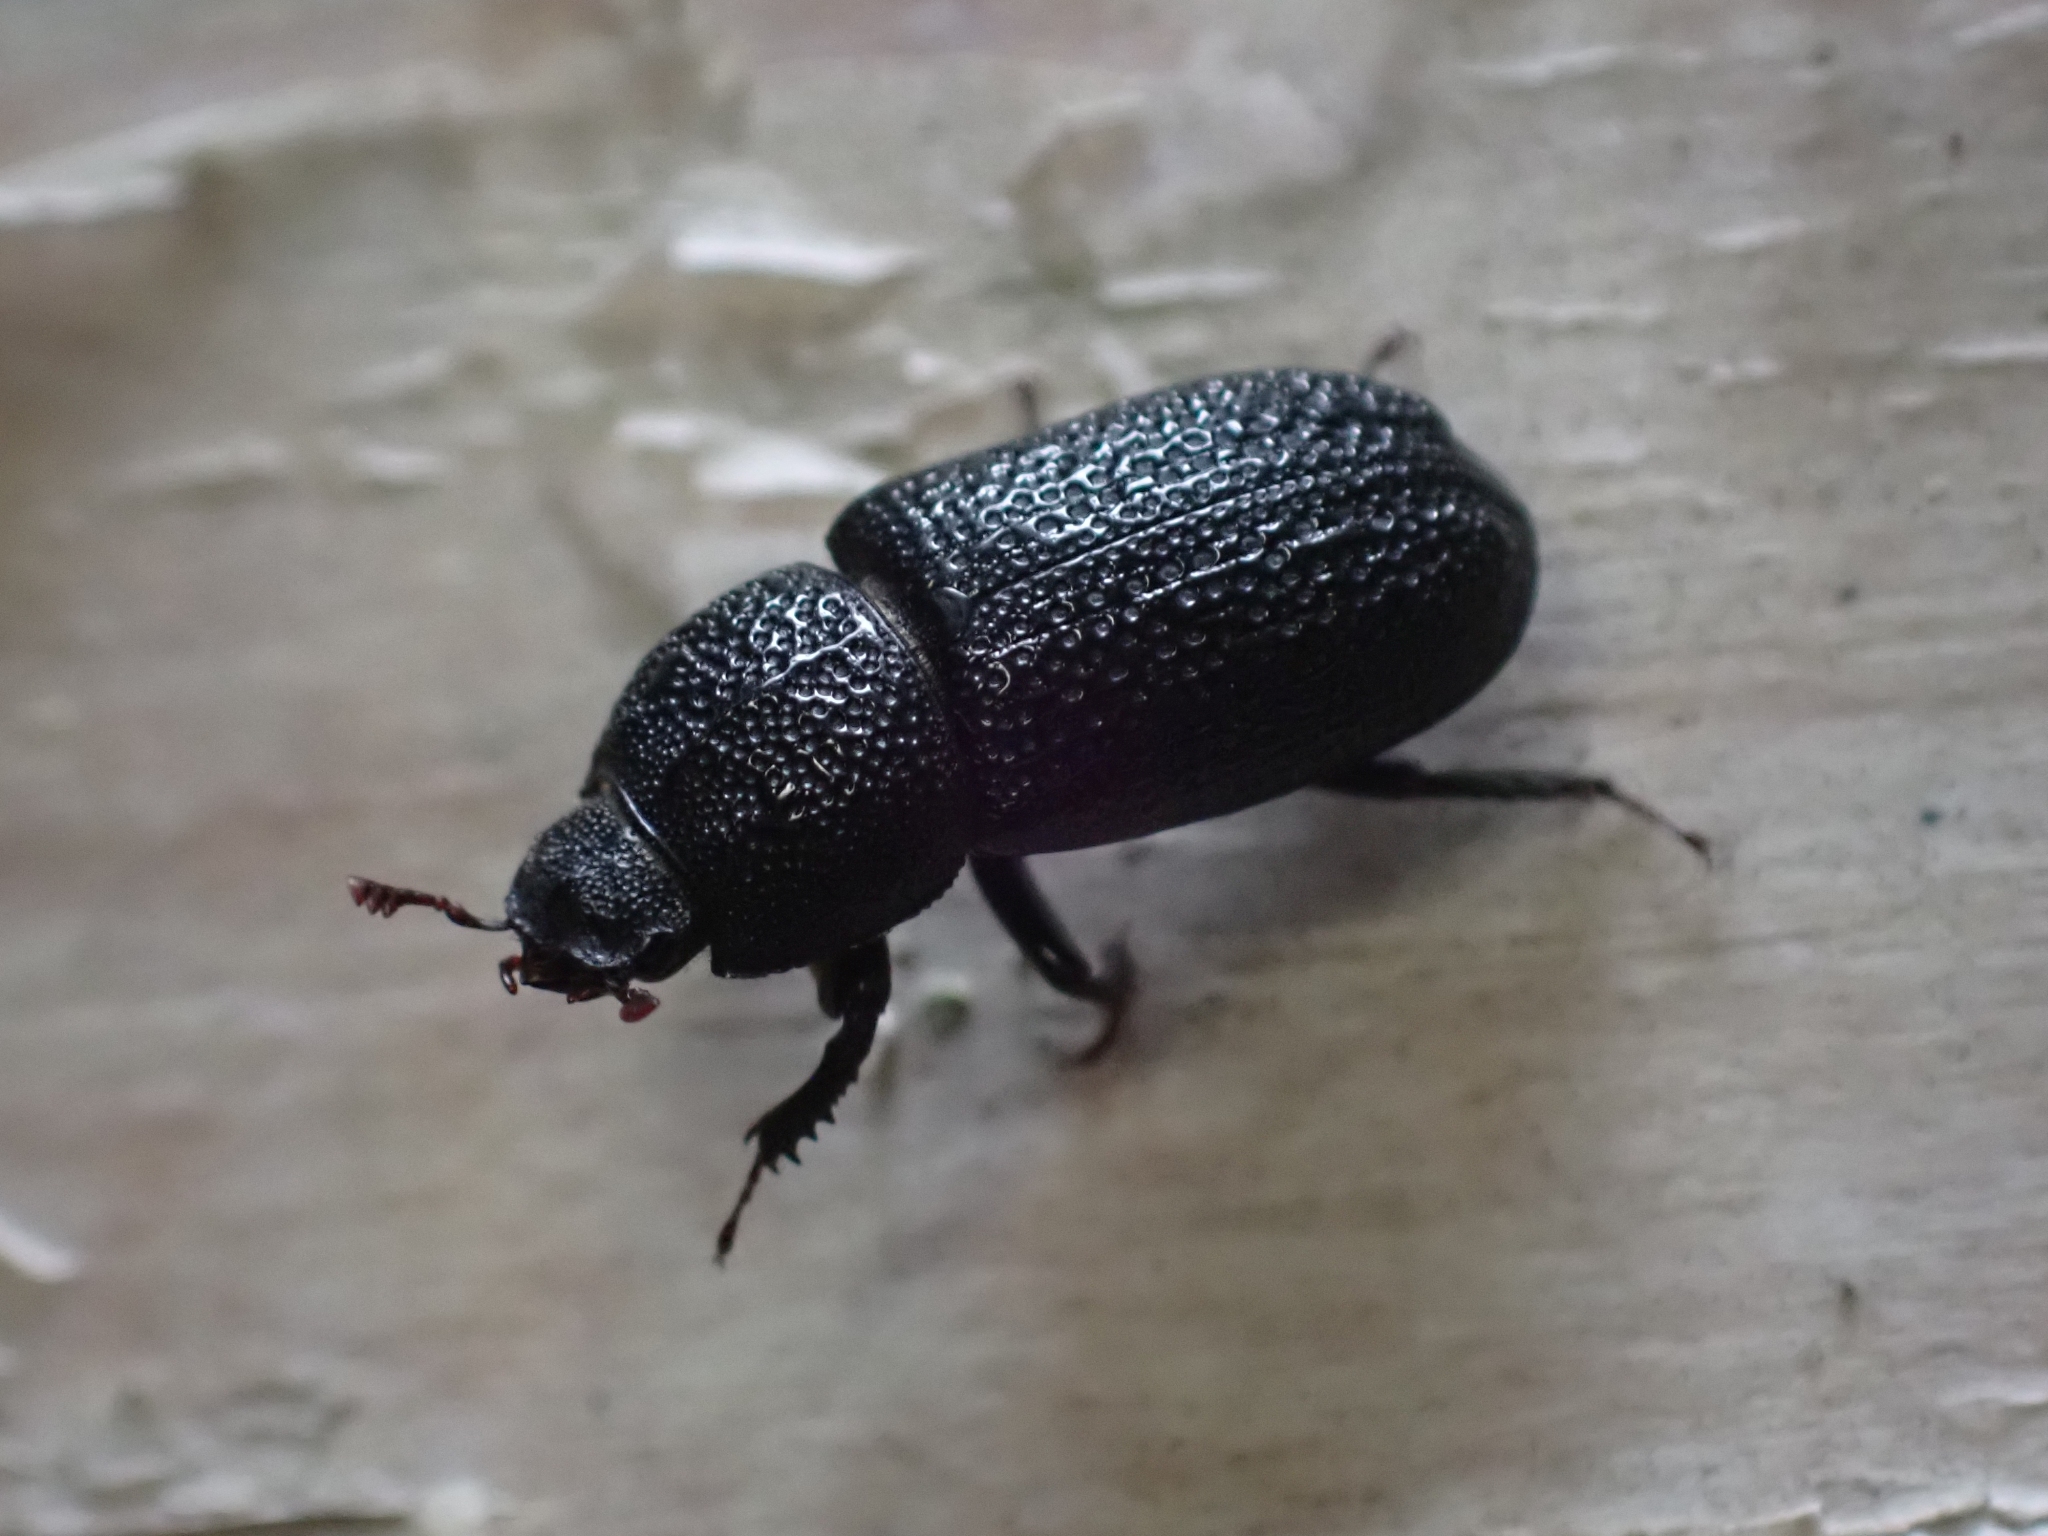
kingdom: Animalia
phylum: Arthropoda
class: Insecta
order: Coleoptera
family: Lucanidae
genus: Sinodendron
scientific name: Sinodendron rugosum
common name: Rugose stag beelte
